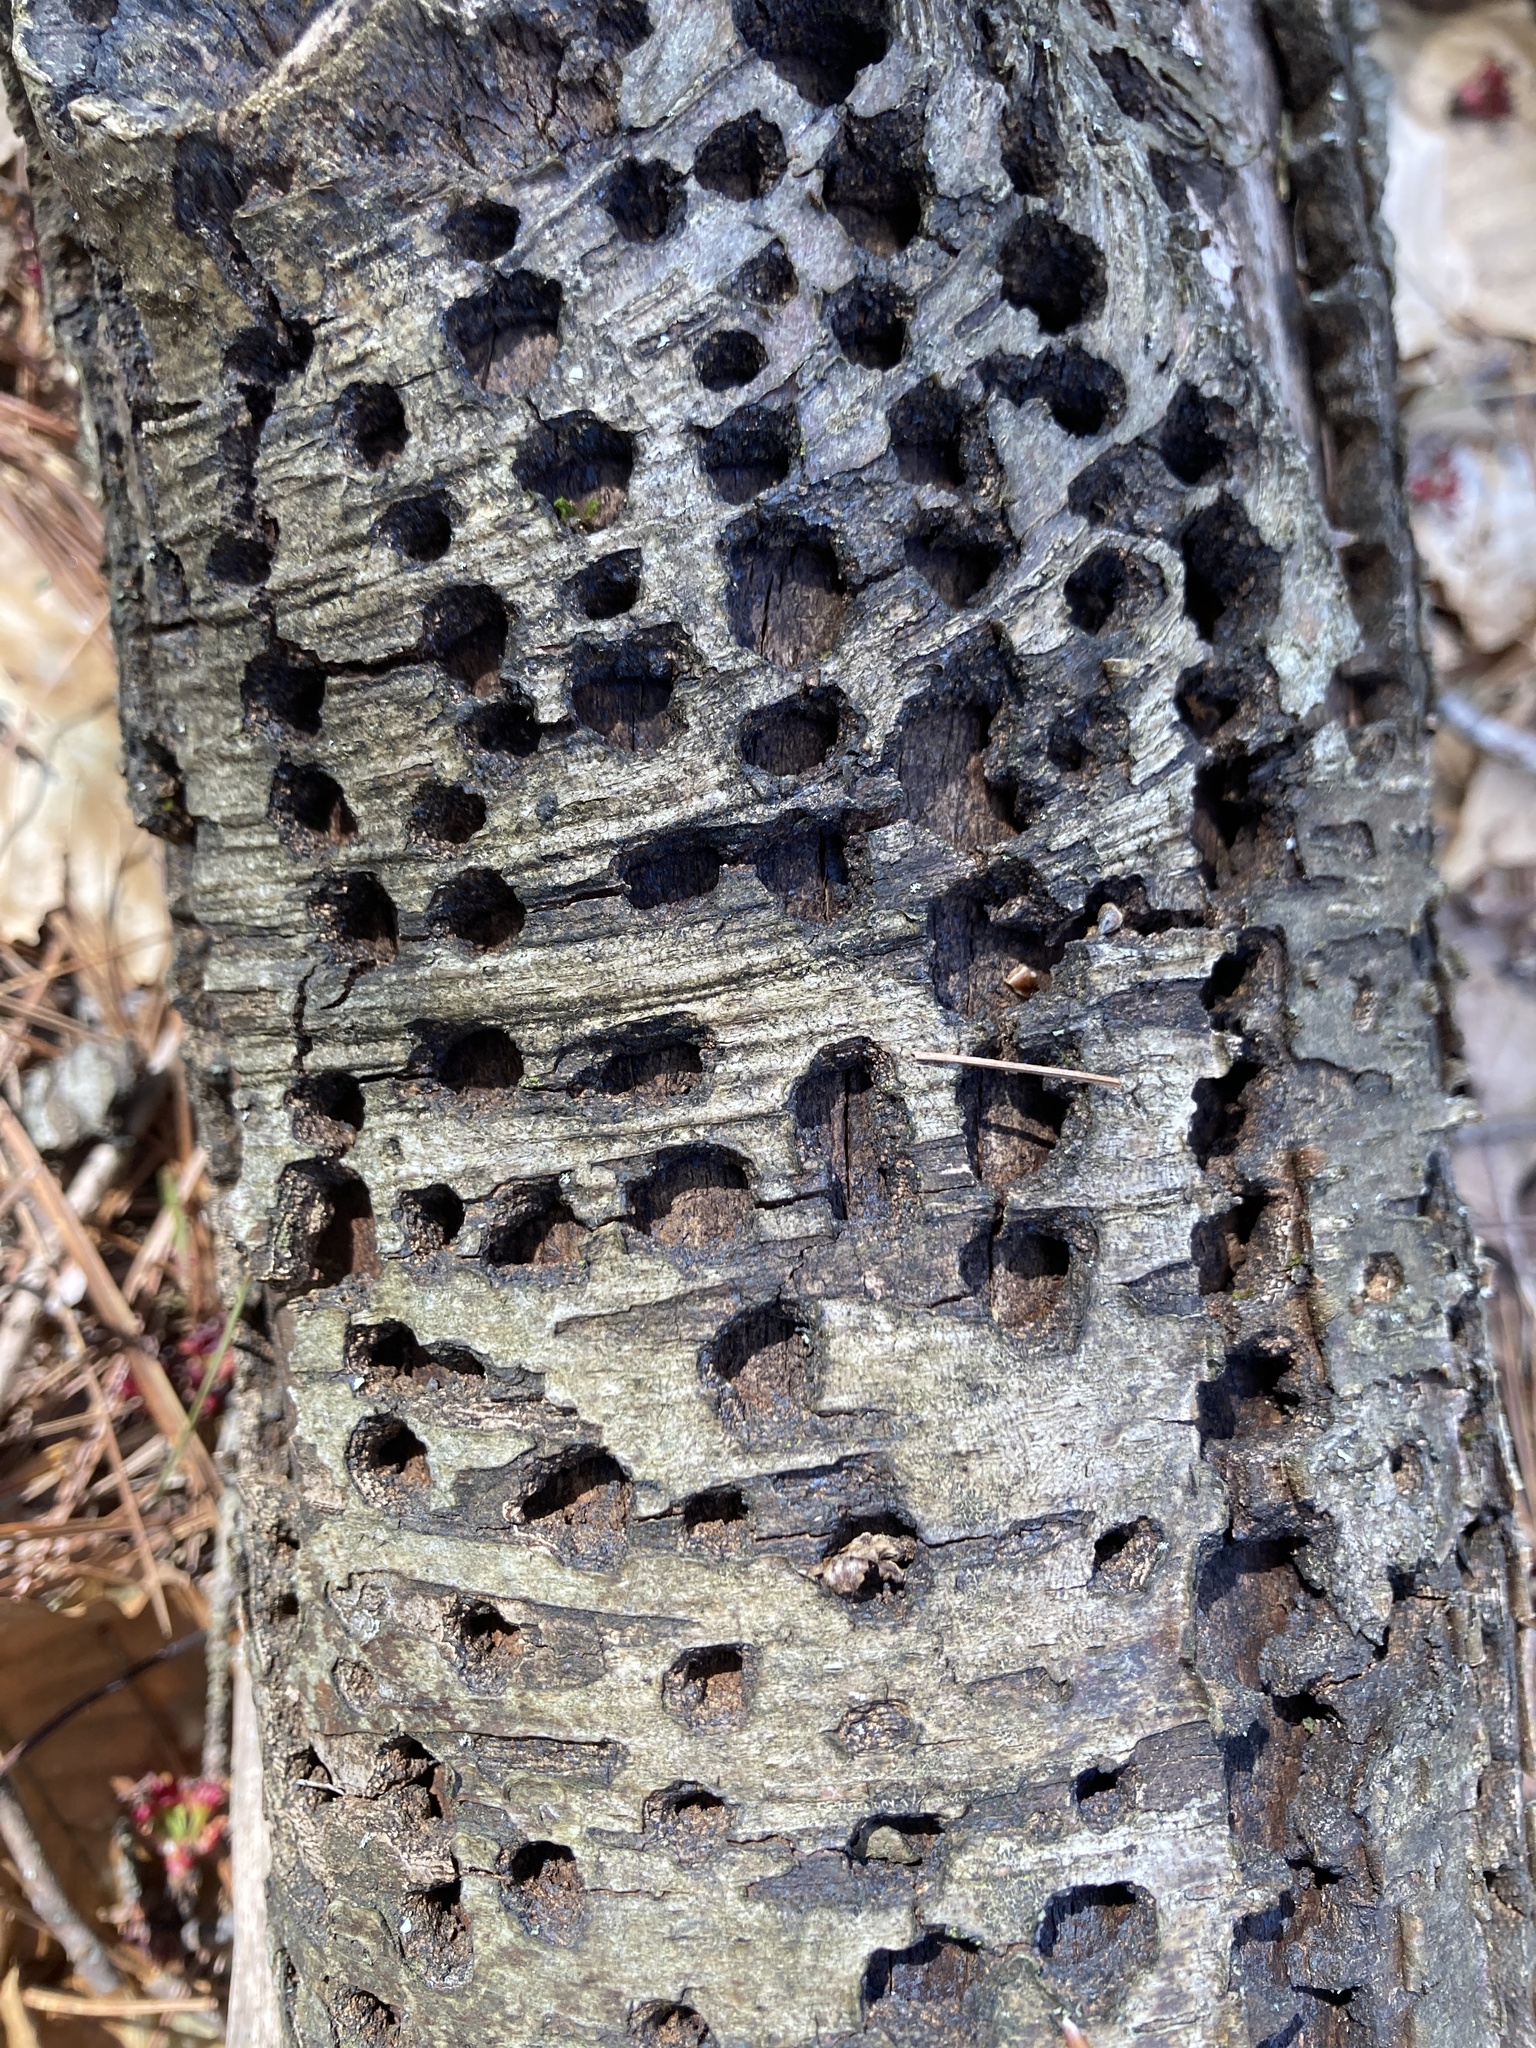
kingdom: Animalia
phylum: Chordata
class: Aves
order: Piciformes
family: Picidae
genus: Sphyrapicus
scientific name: Sphyrapicus varius
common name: Yellow-bellied sapsucker
